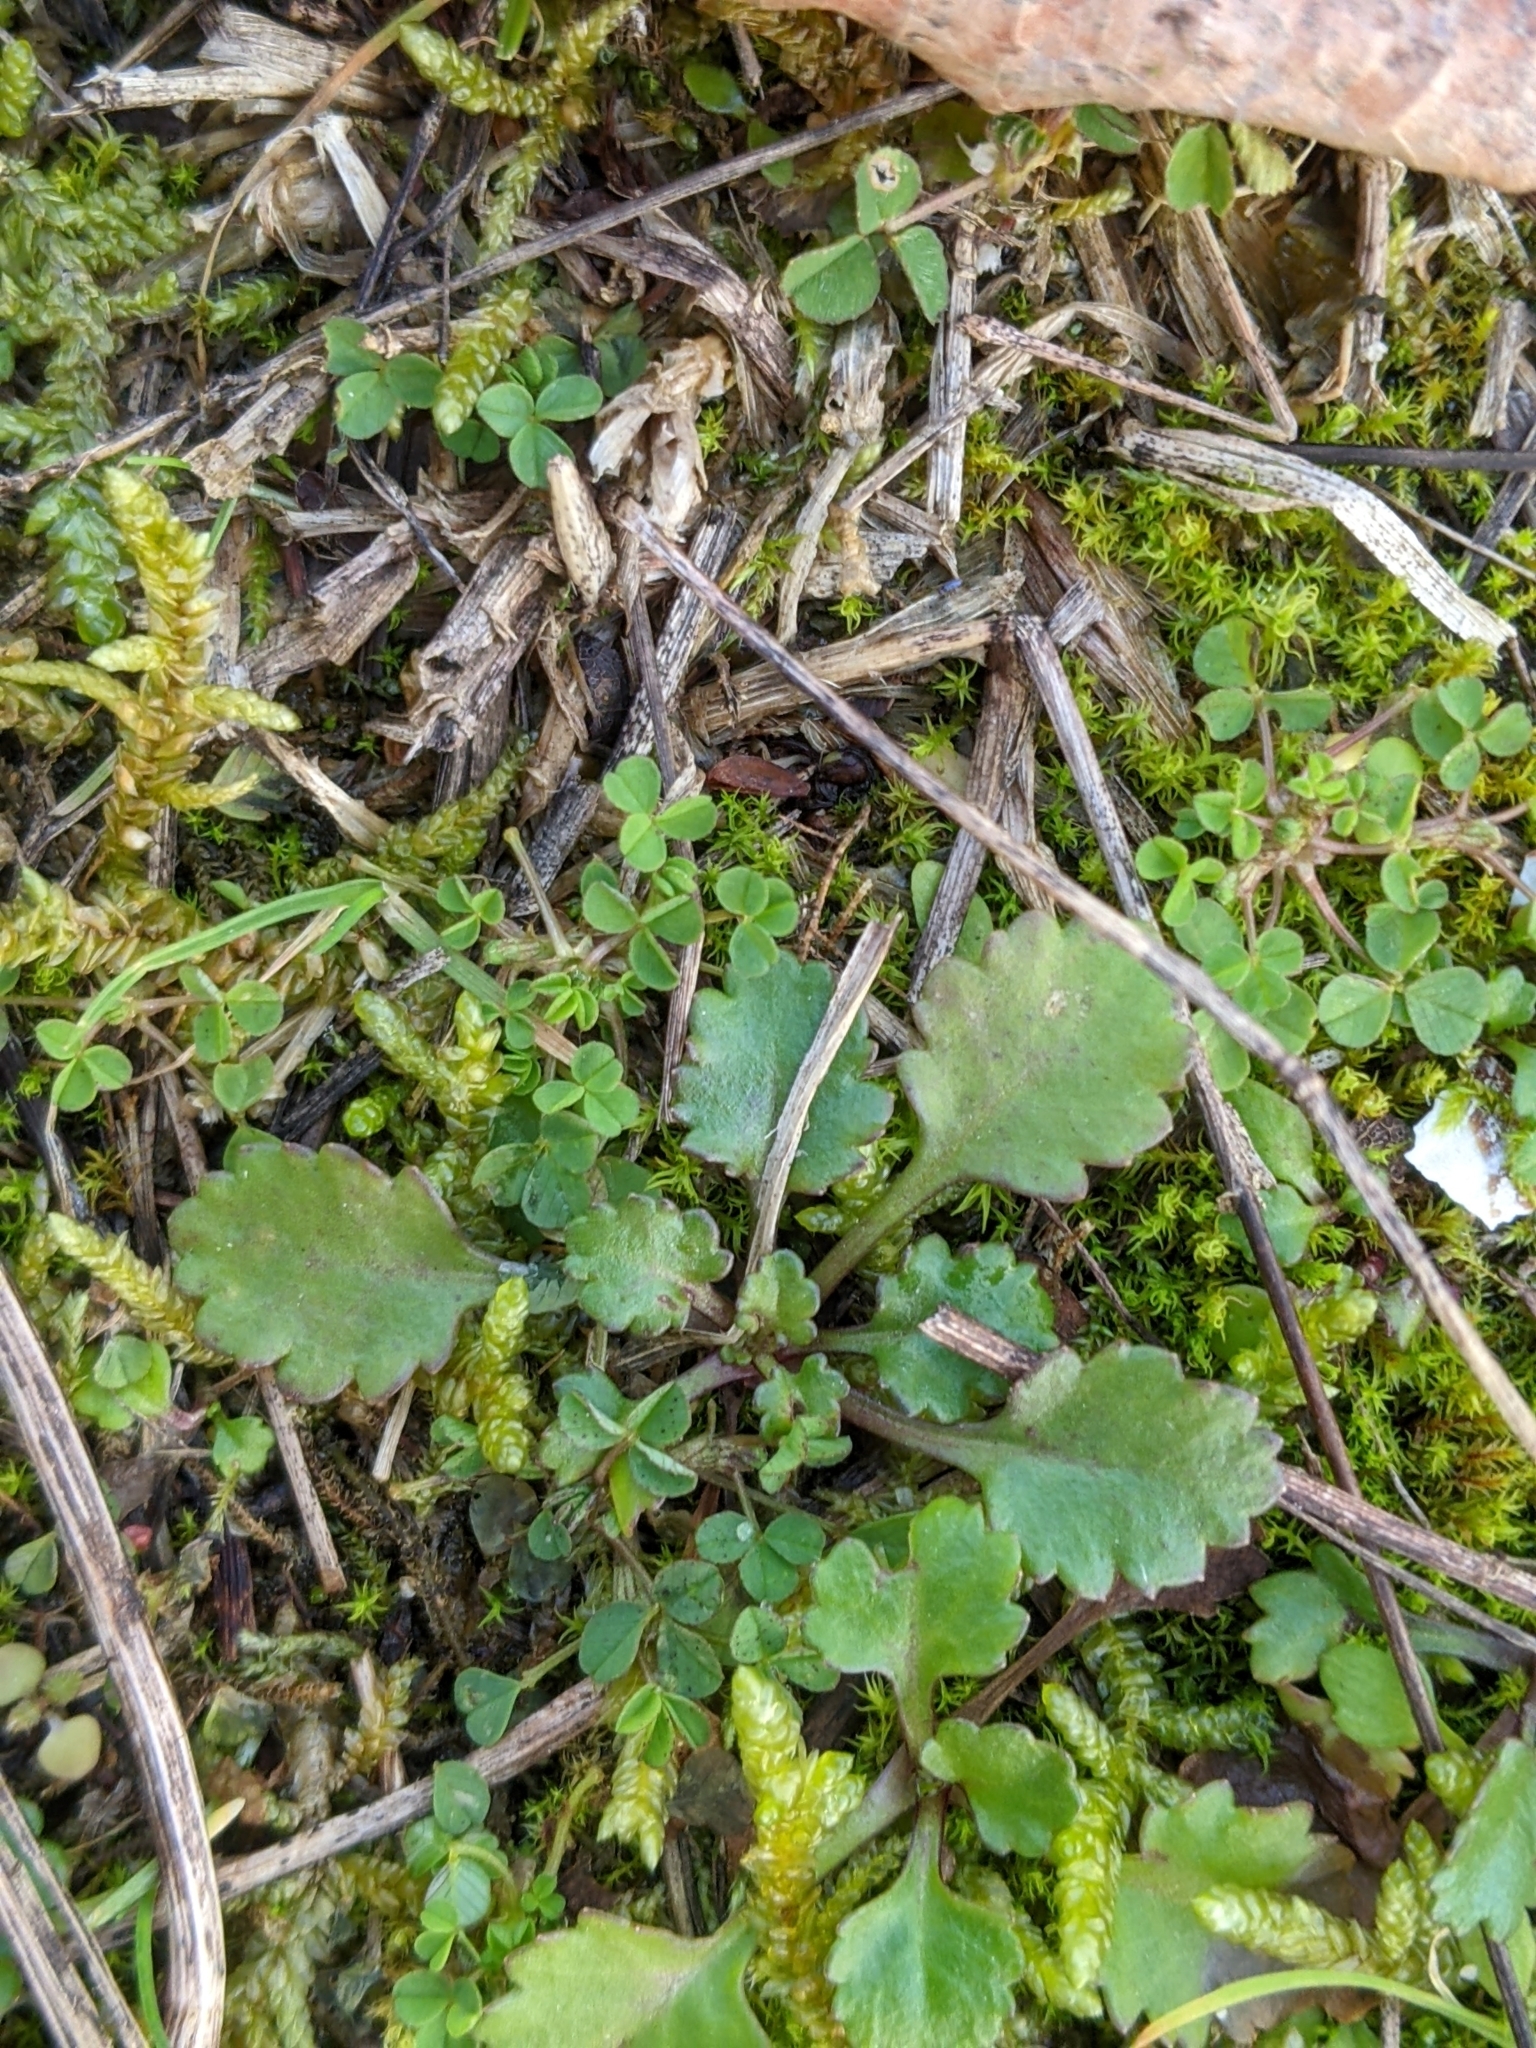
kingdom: Plantae
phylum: Tracheophyta
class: Magnoliopsida
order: Asterales
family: Asteraceae
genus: Leucanthemum
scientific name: Leucanthemum vulgare
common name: Oxeye daisy
